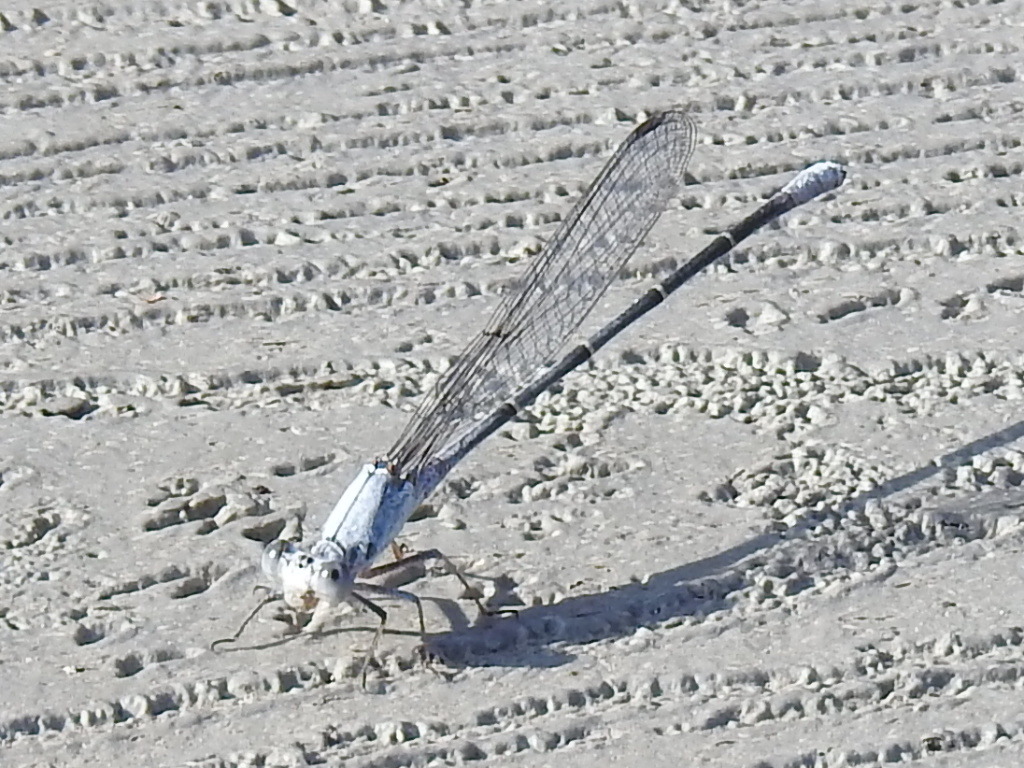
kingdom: Animalia
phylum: Arthropoda
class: Insecta
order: Odonata
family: Coenagrionidae
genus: Argia
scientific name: Argia moesta
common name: Powdered dancer
